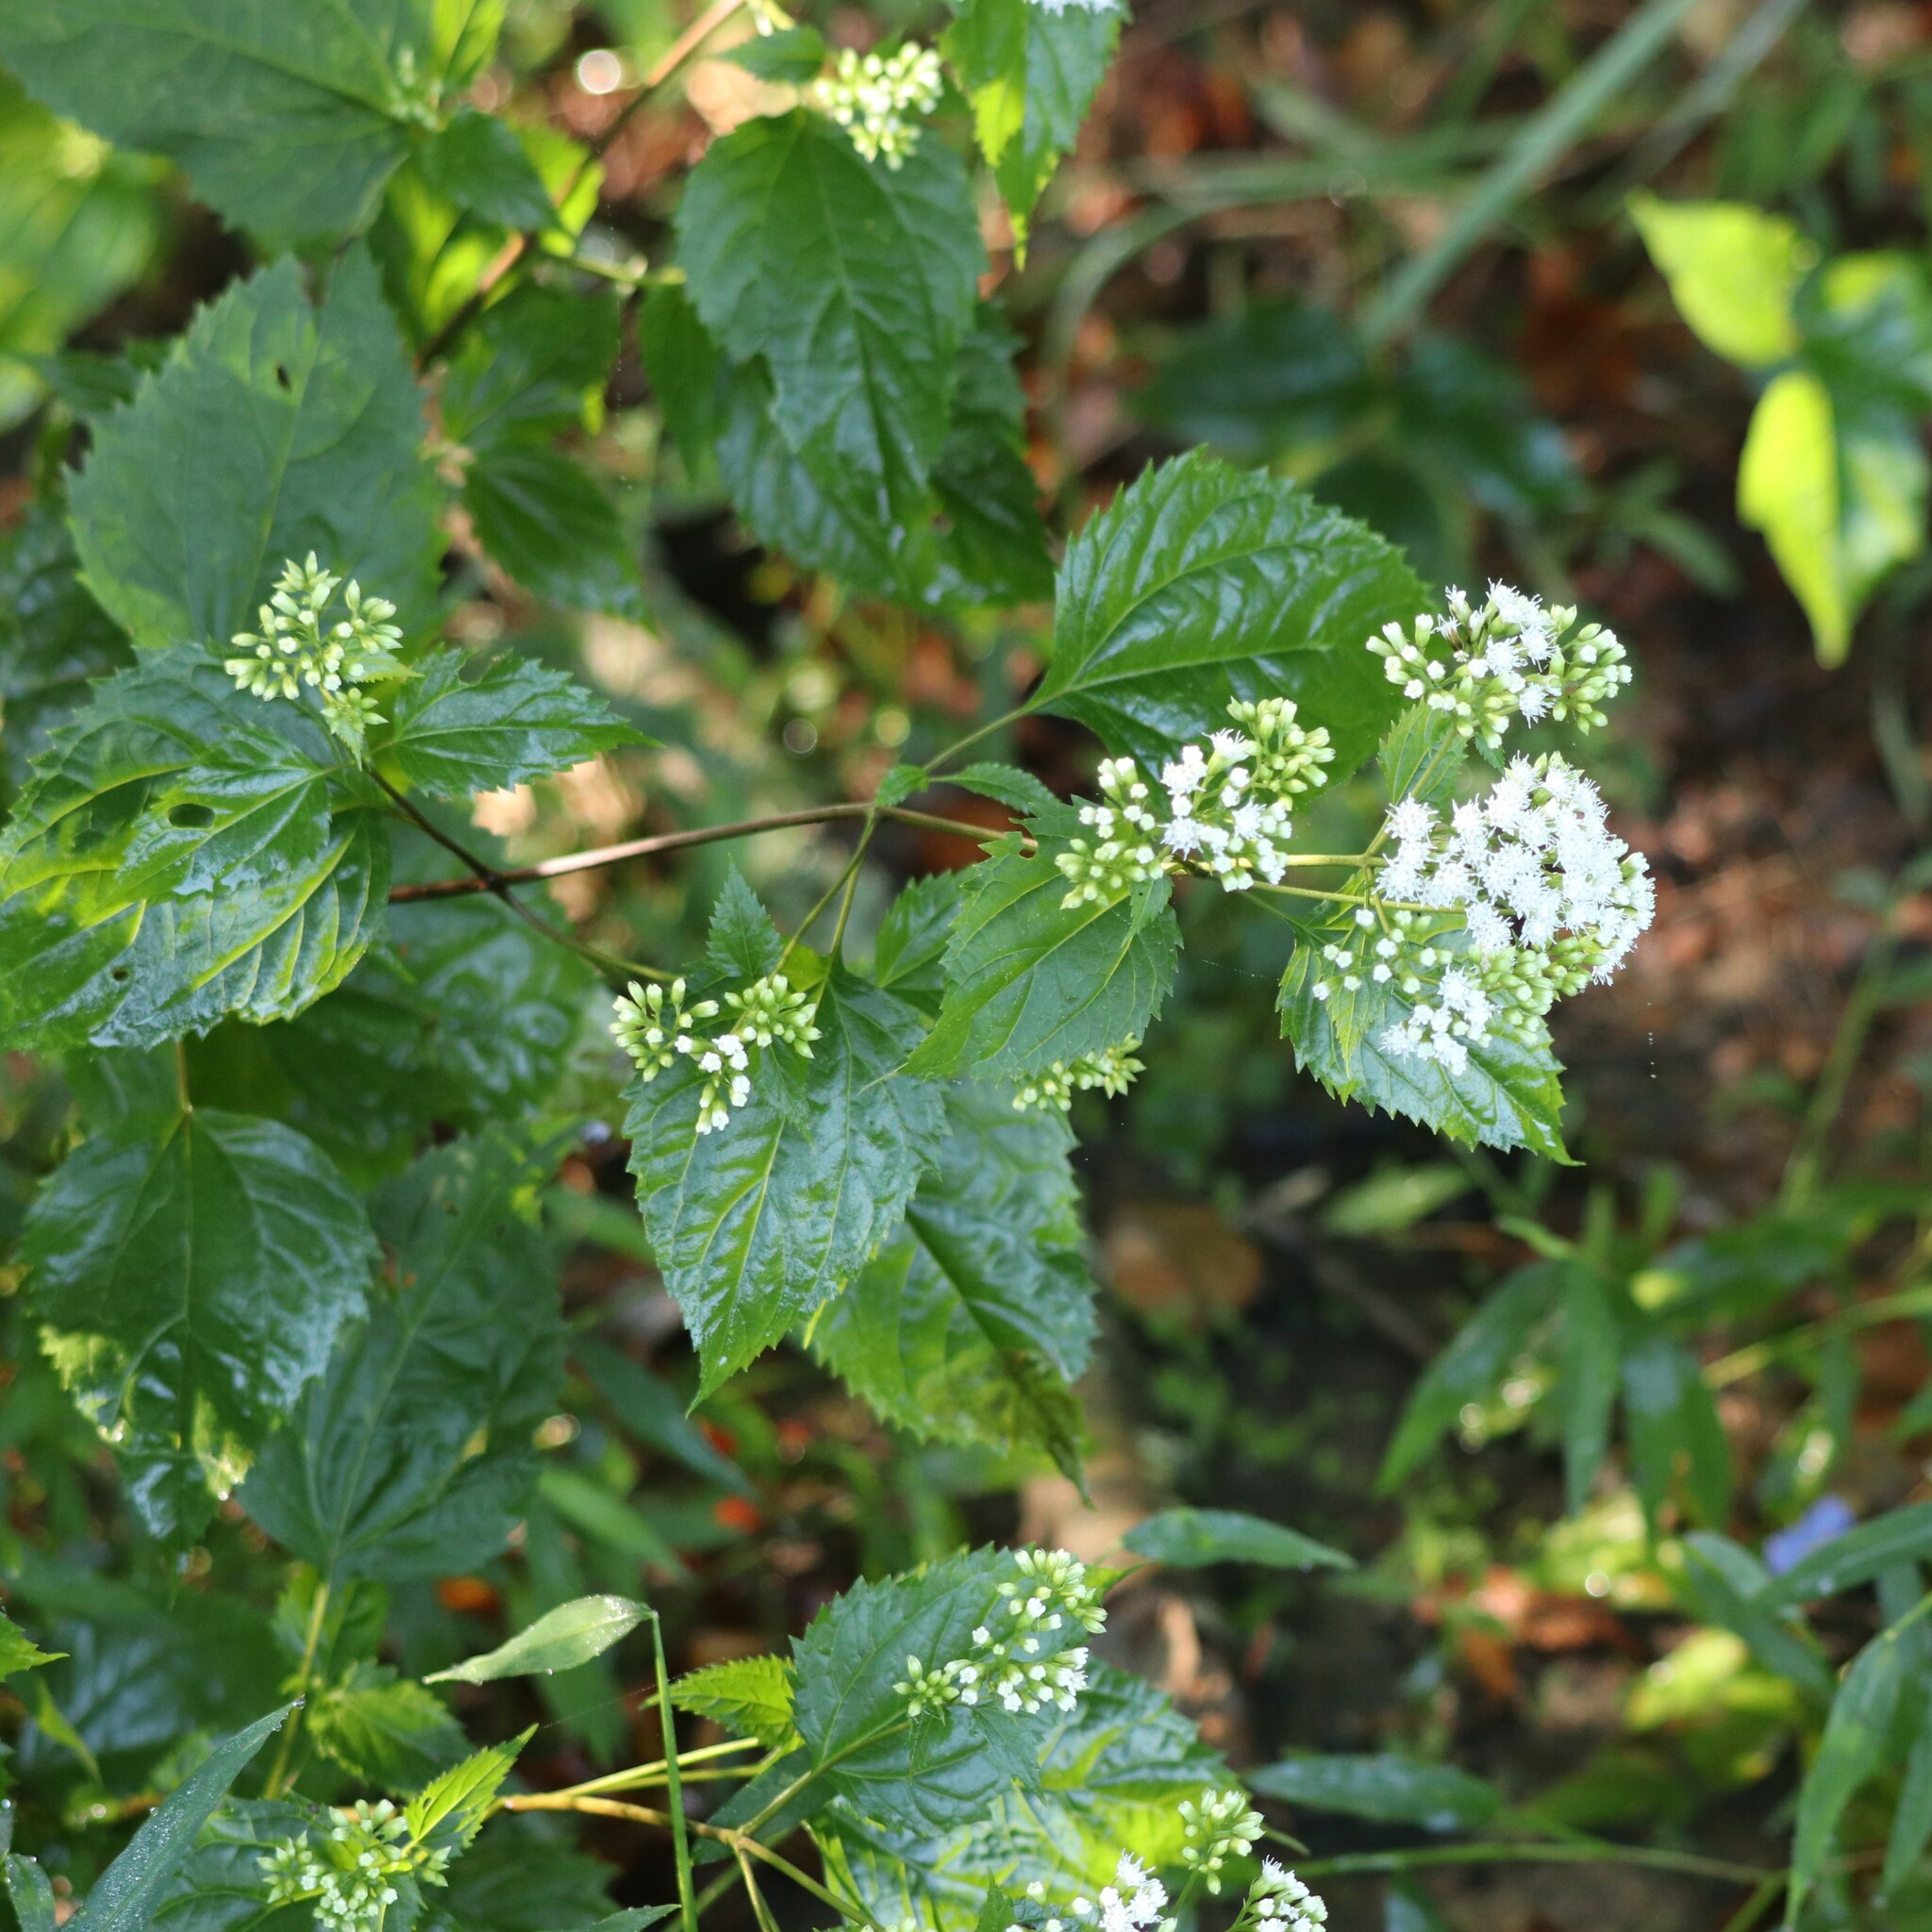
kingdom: Plantae
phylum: Tracheophyta
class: Magnoliopsida
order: Asterales
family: Asteraceae
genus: Ageratina
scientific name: Ageratina altissima
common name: White snakeroot
